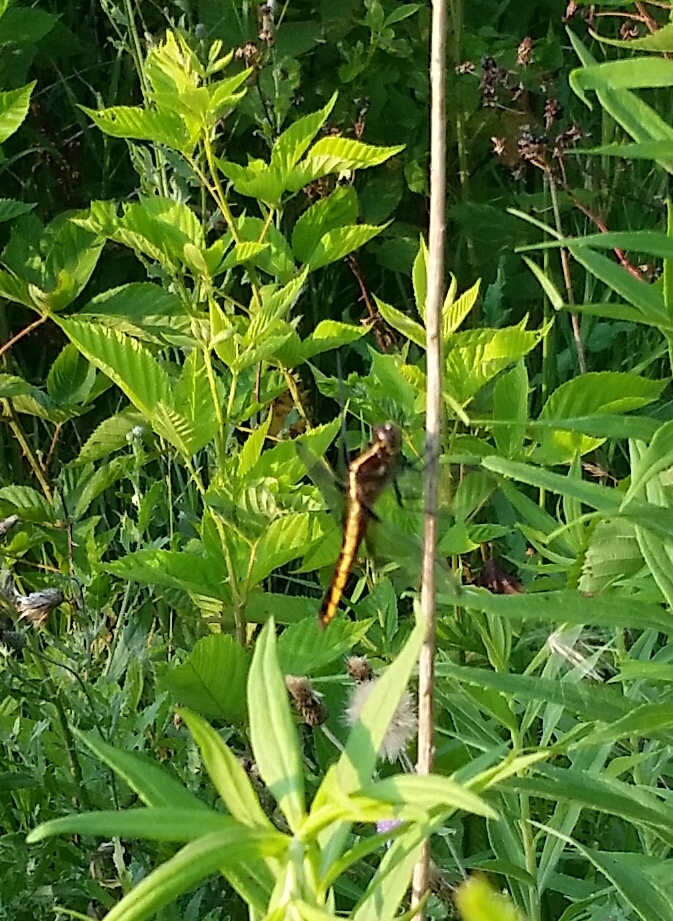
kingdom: Animalia
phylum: Arthropoda
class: Insecta
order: Odonata
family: Libellulidae
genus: Libellula
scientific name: Libellula luctuosa
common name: Widow skimmer
